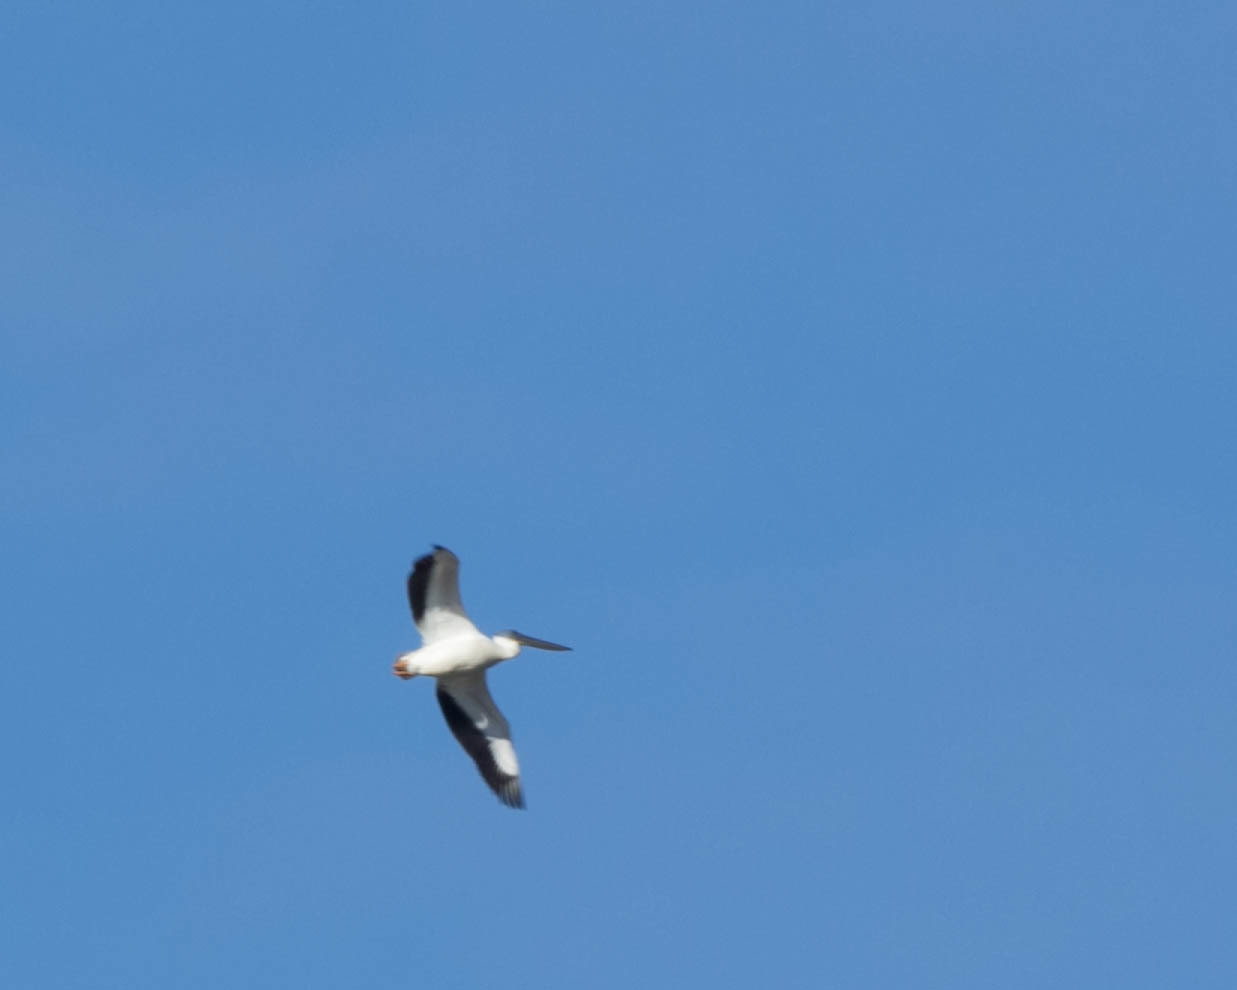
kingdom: Animalia
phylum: Chordata
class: Aves
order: Pelecaniformes
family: Pelecanidae
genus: Pelecanus
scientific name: Pelecanus erythrorhynchos
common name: American white pelican
